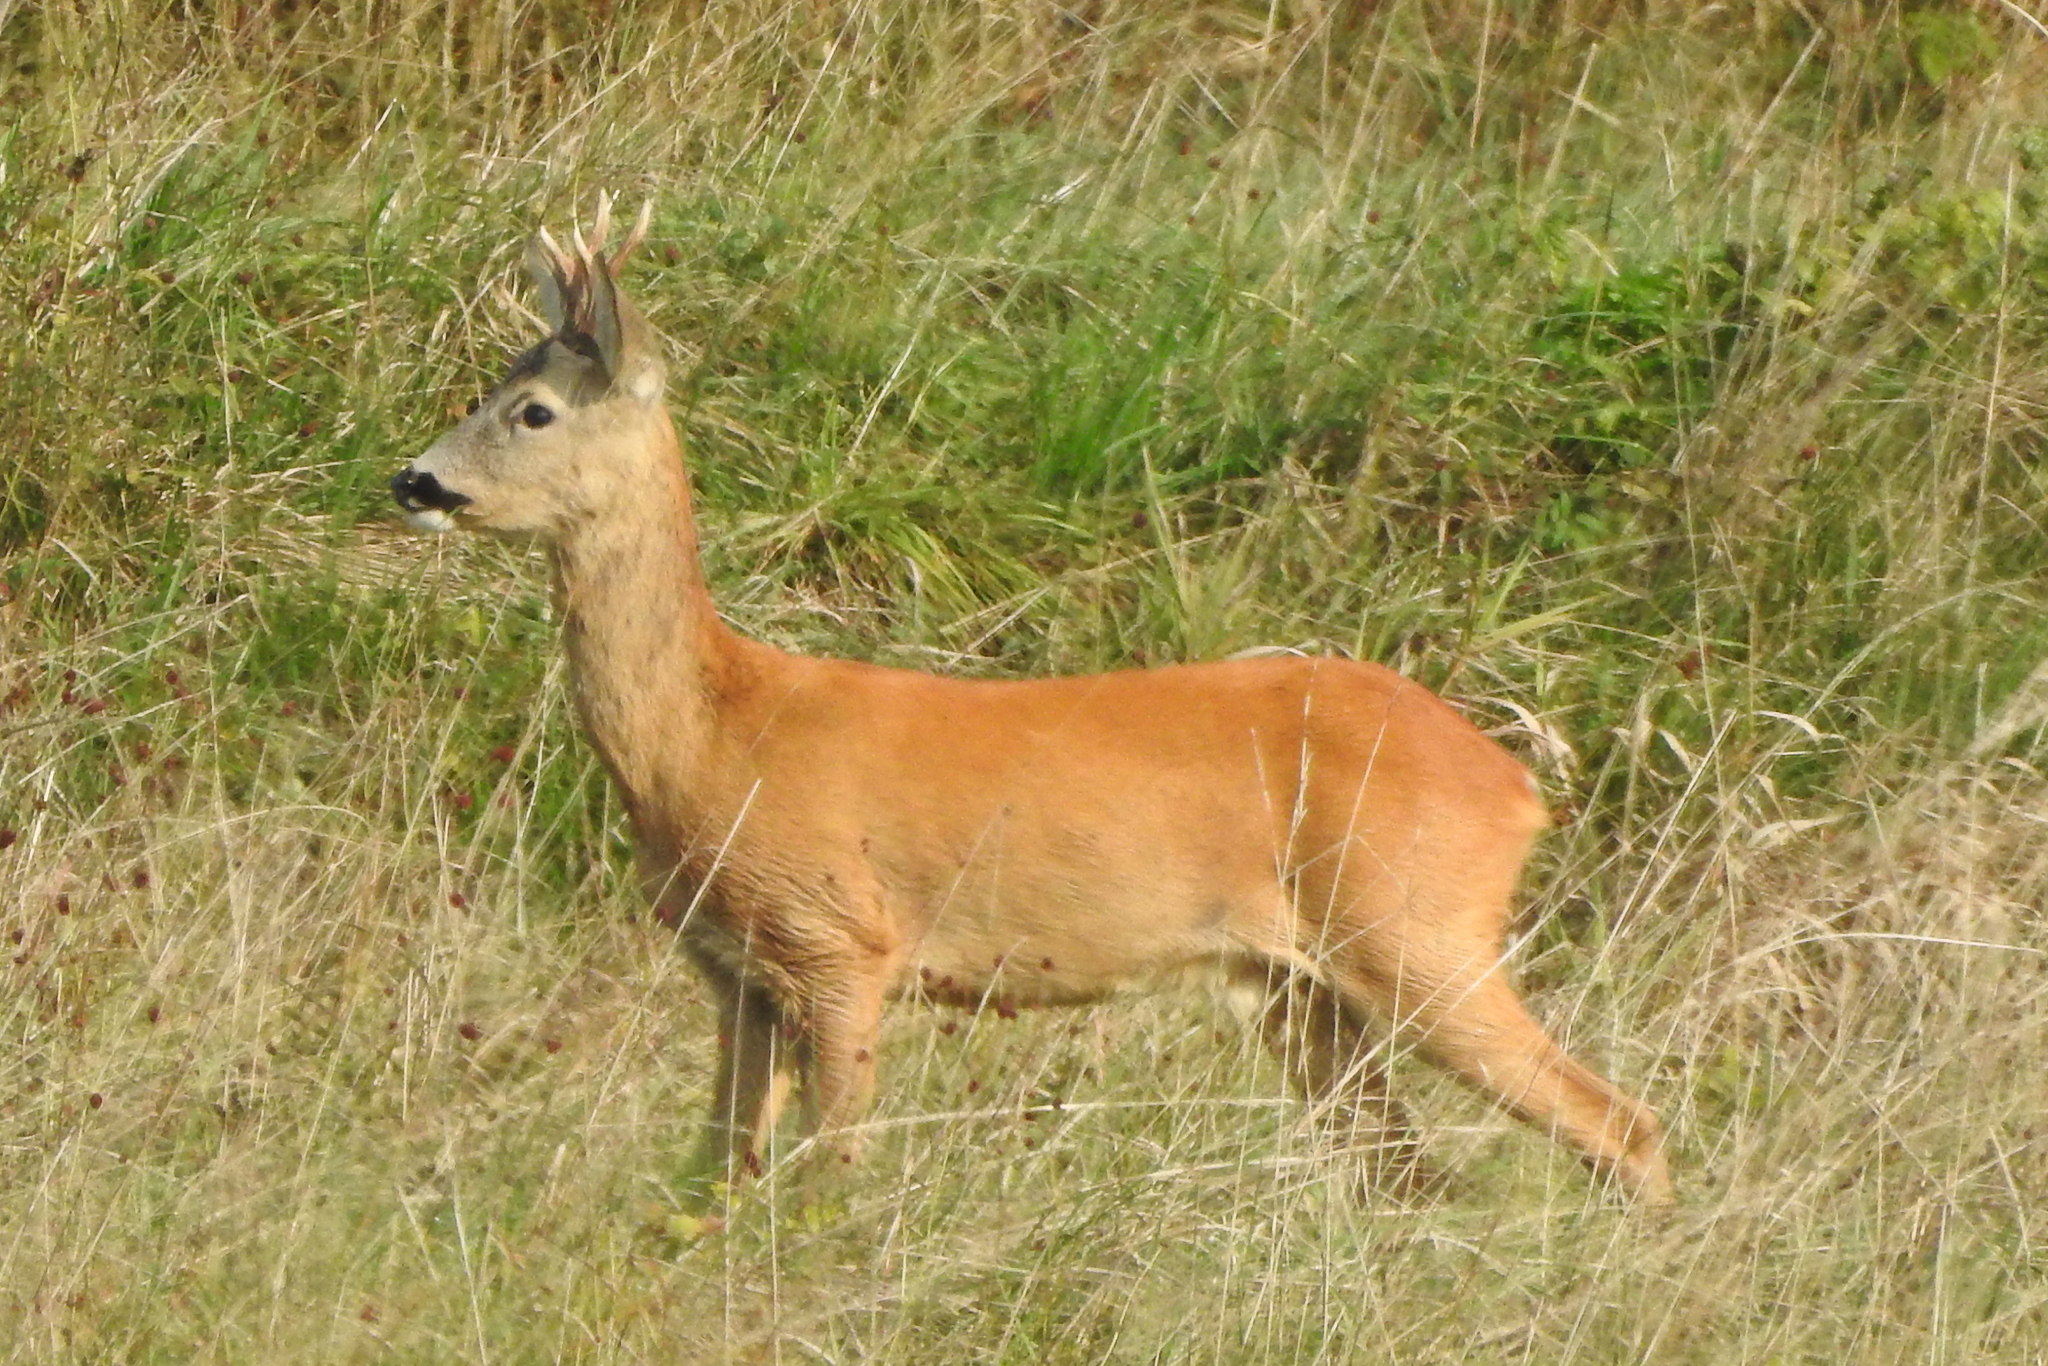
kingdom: Animalia
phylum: Chordata
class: Mammalia
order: Artiodactyla
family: Cervidae
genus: Capreolus
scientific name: Capreolus capreolus
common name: Western roe deer
